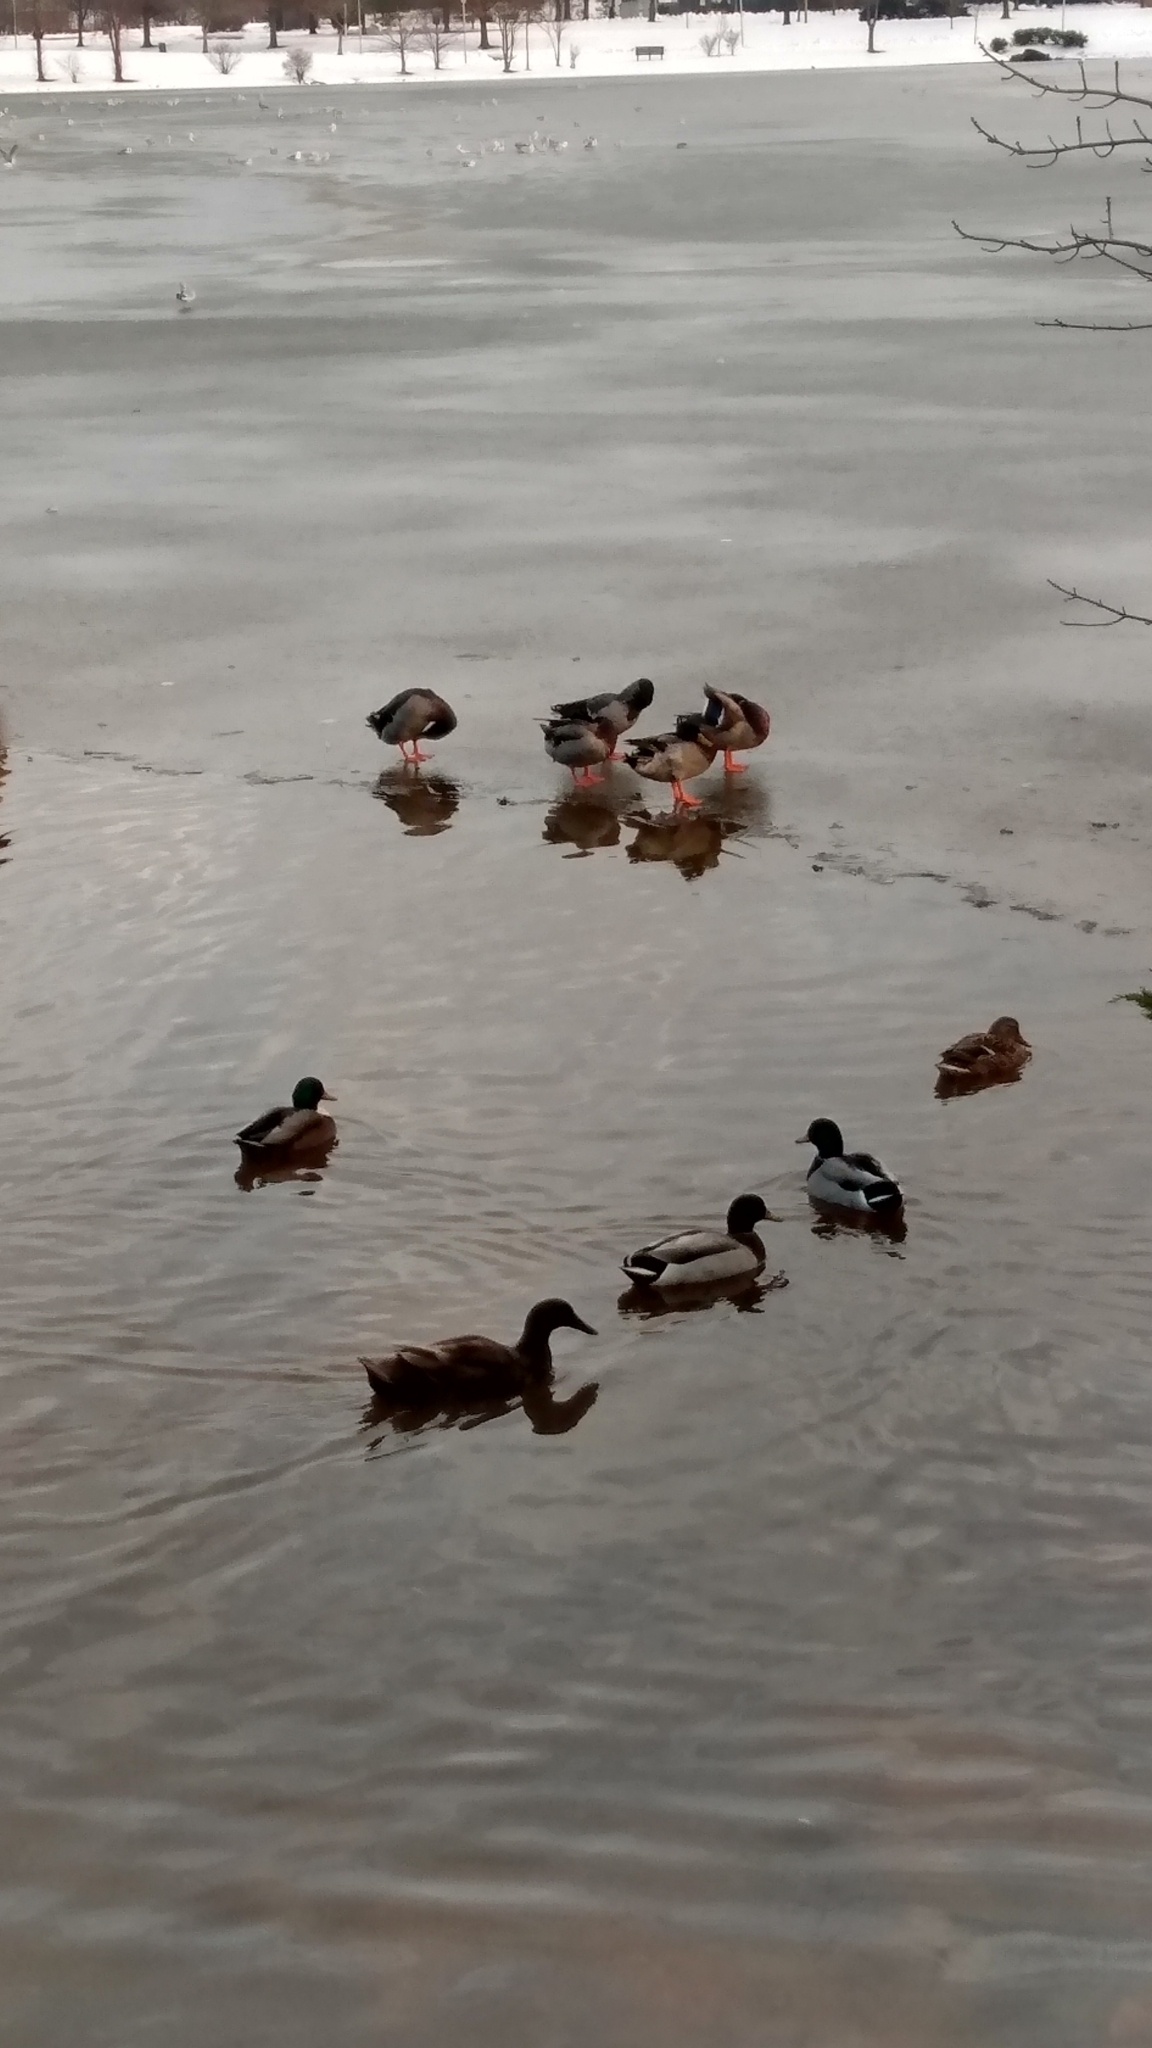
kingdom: Animalia
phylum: Chordata
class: Aves
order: Anseriformes
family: Anatidae
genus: Anas
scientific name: Anas platyrhynchos
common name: Mallard
